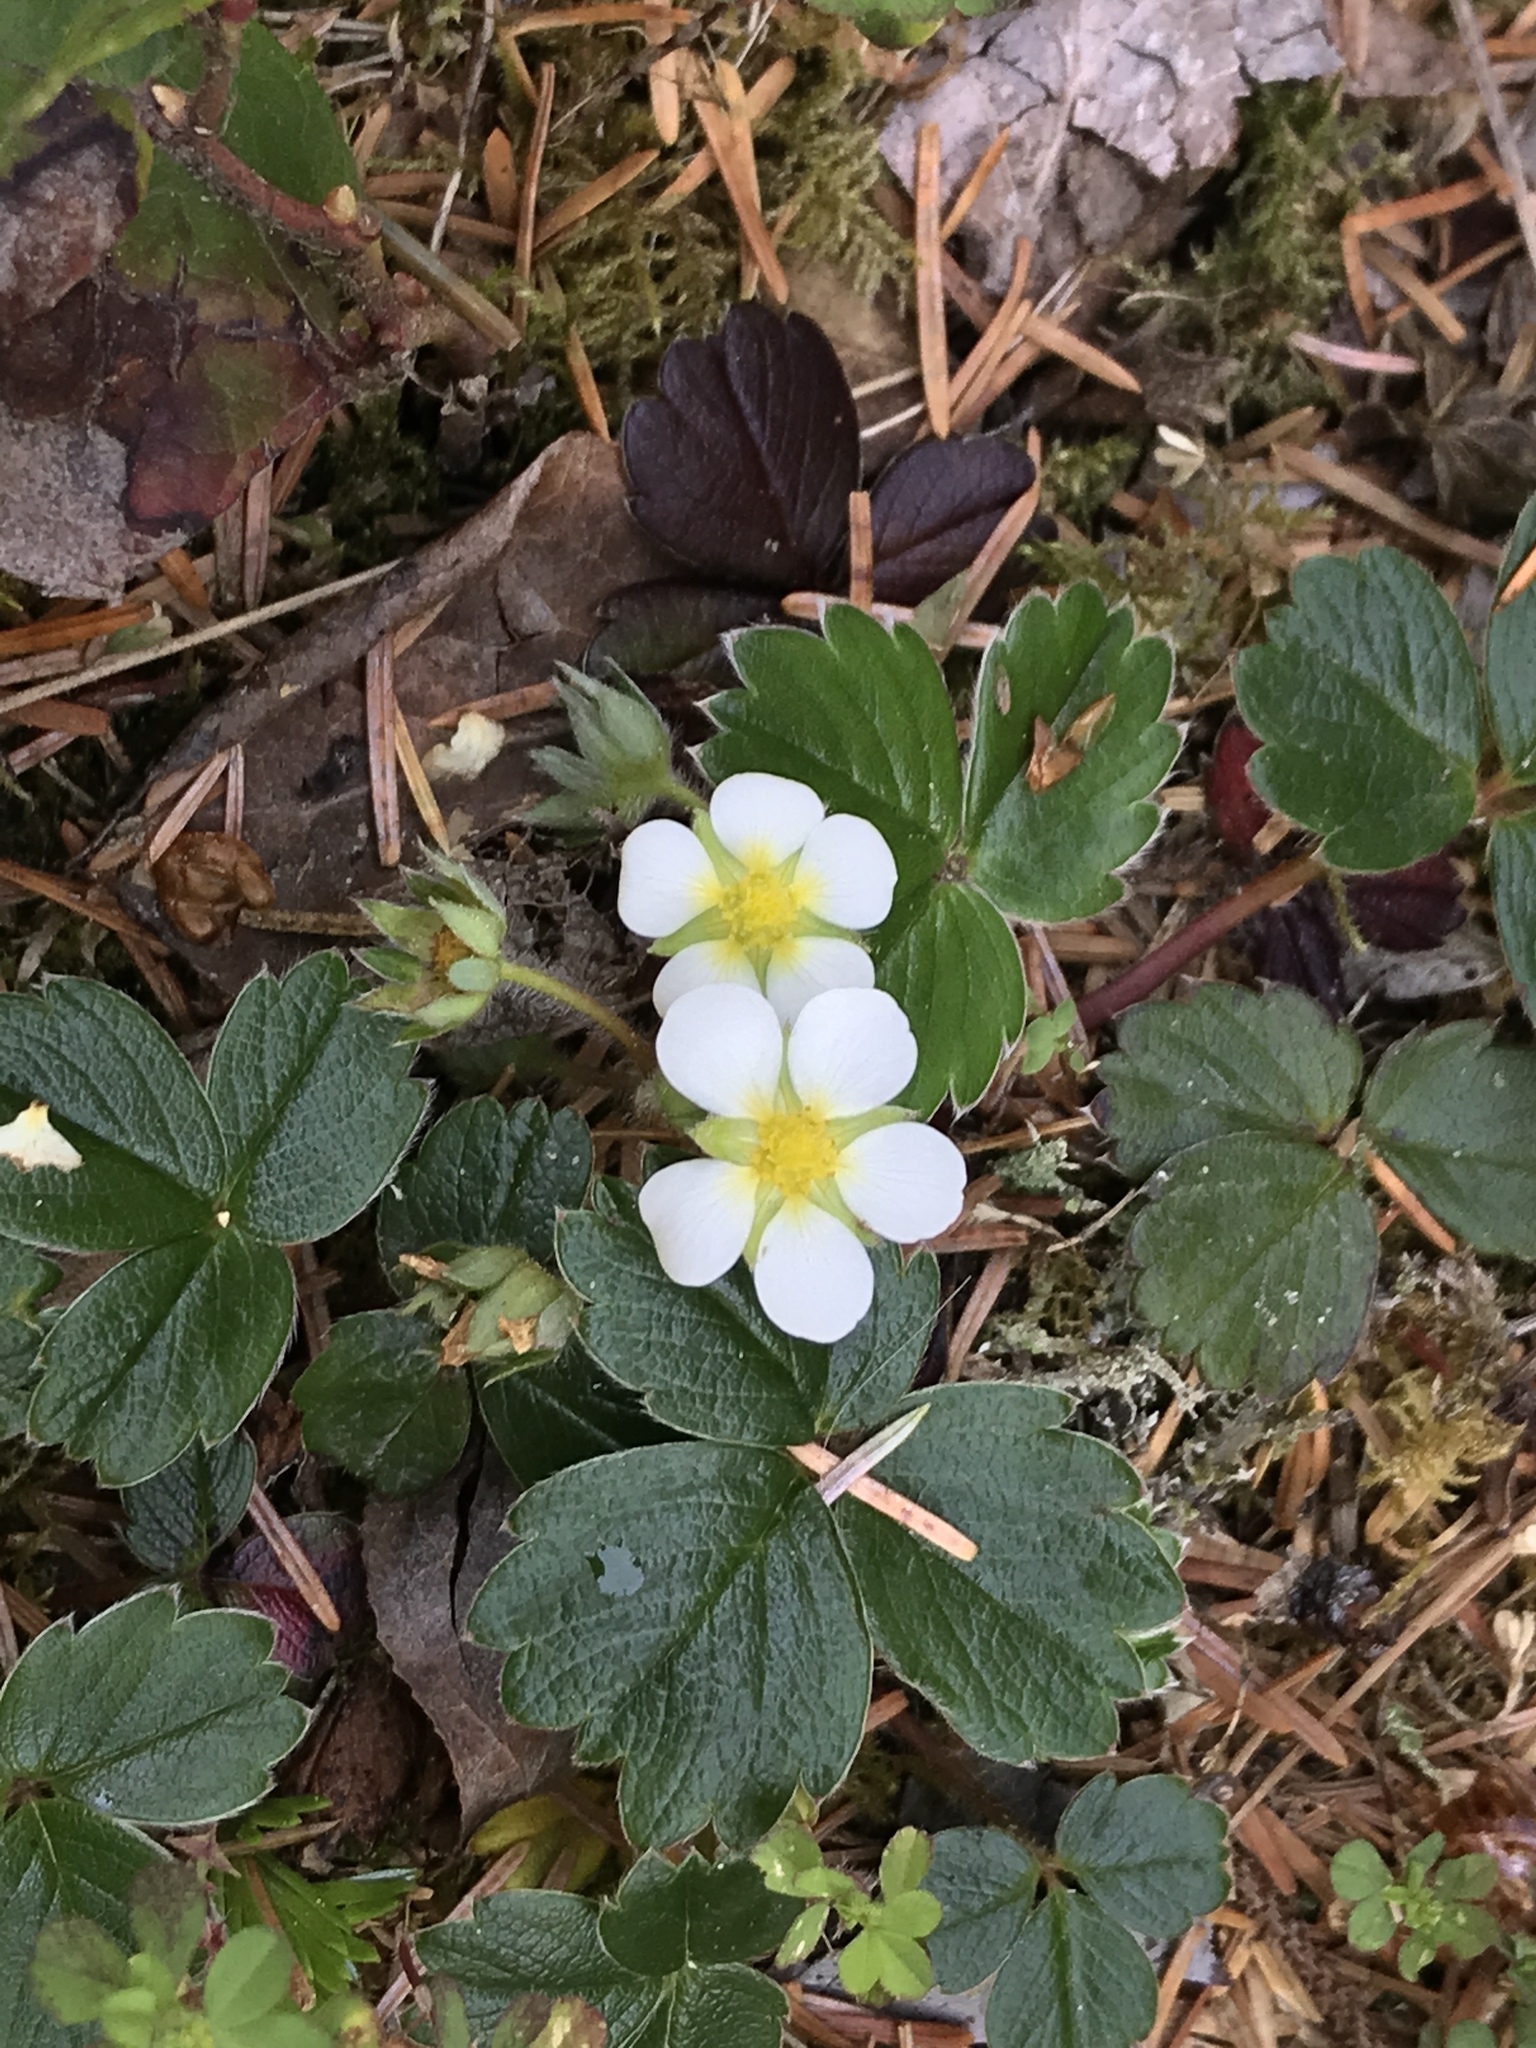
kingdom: Plantae
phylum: Tracheophyta
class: Magnoliopsida
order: Rosales
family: Rosaceae
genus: Fragaria
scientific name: Fragaria chiloensis
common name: Beach strawberry
